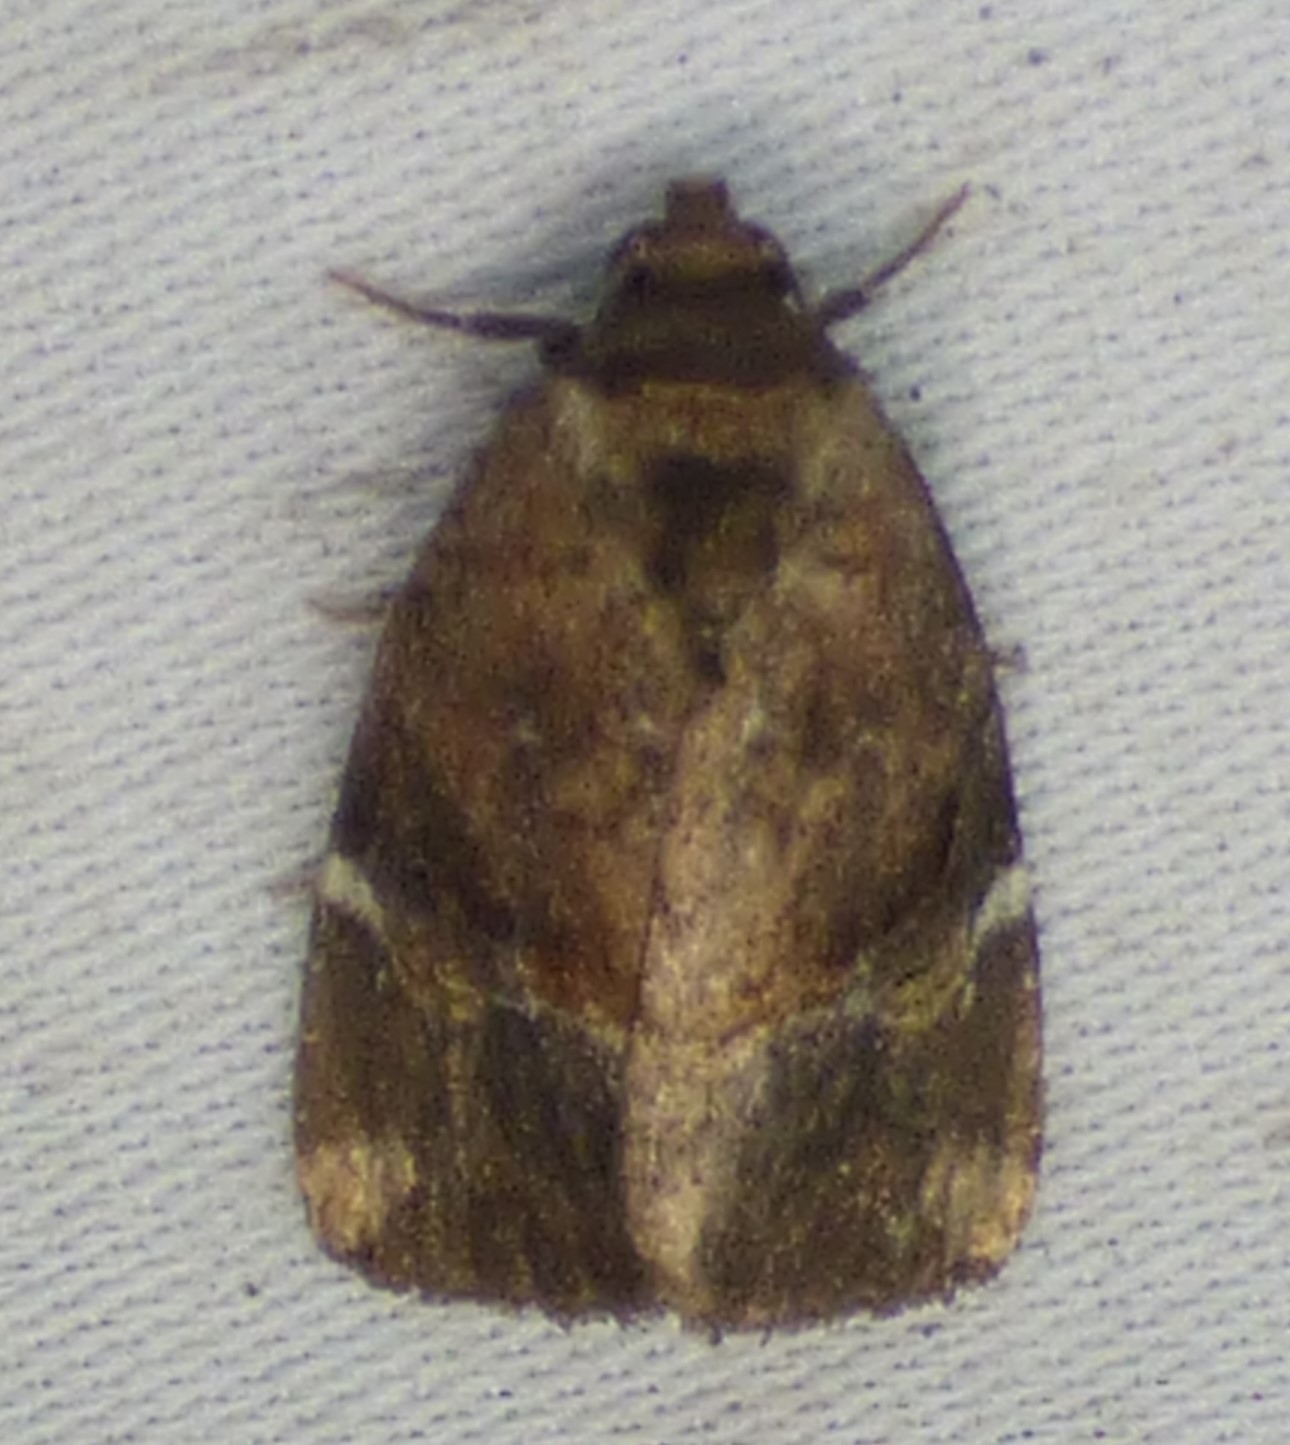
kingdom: Animalia
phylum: Arthropoda
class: Insecta
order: Lepidoptera
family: Noctuidae
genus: Elaphria
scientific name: Elaphria versicolor
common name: Fir harlequin
